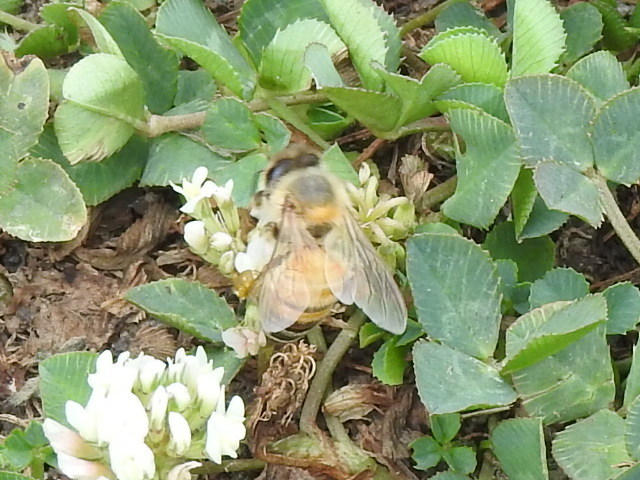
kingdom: Animalia
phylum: Arthropoda
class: Insecta
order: Hymenoptera
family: Apidae
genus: Apis
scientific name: Apis mellifera
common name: Honey bee
